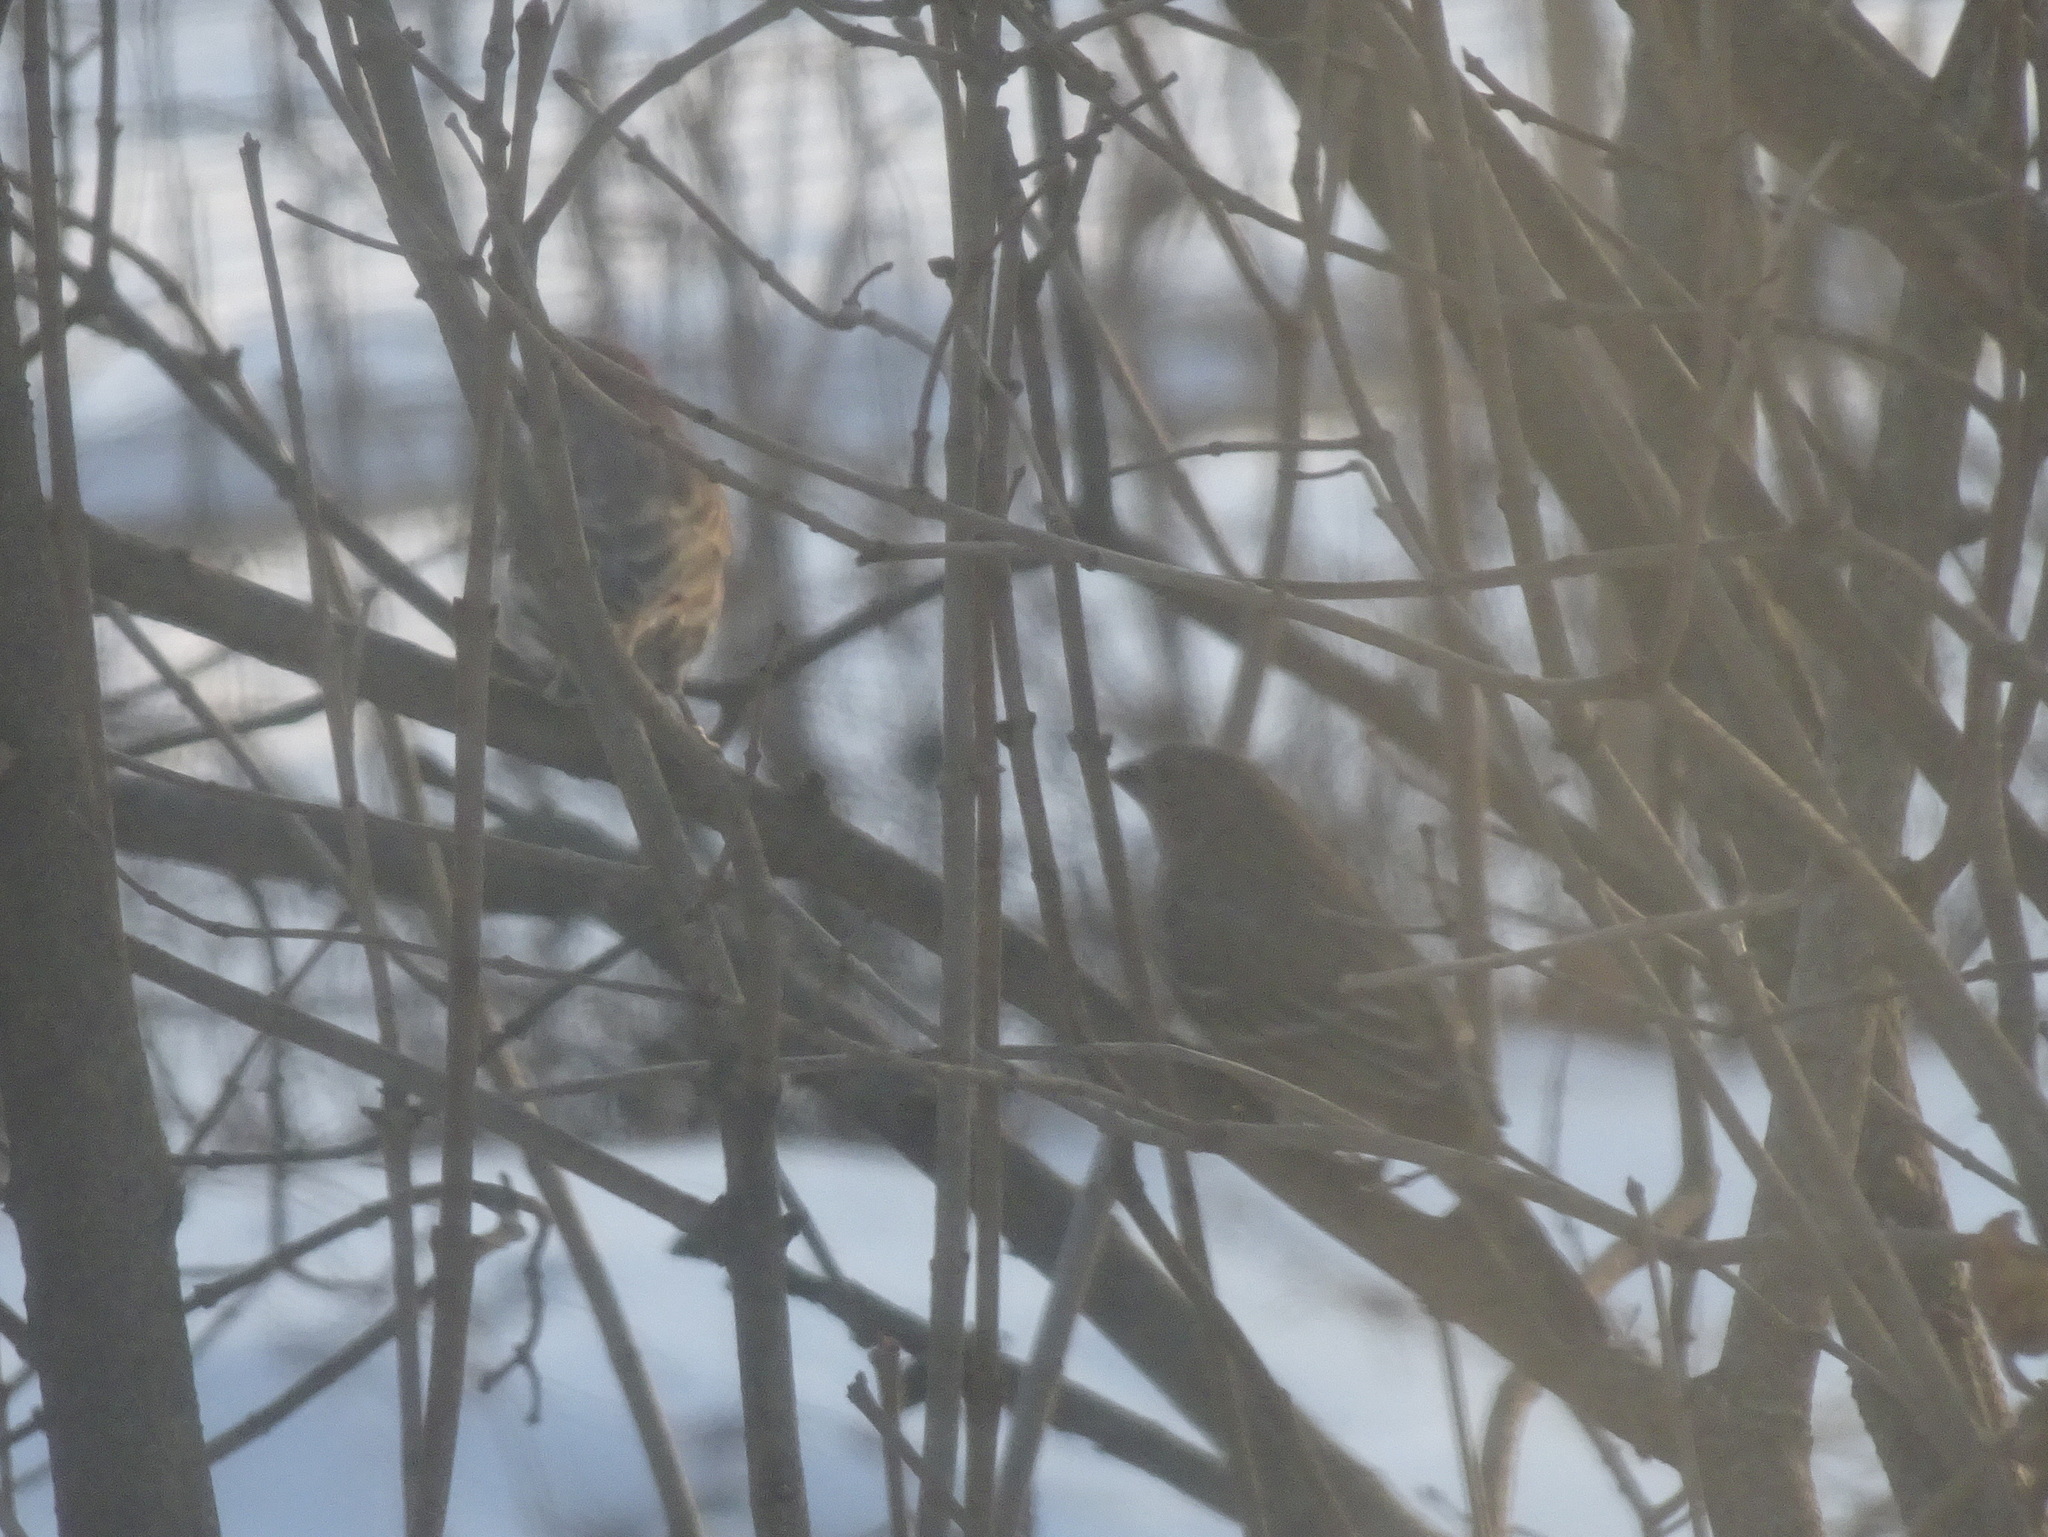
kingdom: Animalia
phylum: Chordata
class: Aves
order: Passeriformes
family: Fringillidae
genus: Haemorhous
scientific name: Haemorhous mexicanus
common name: House finch
